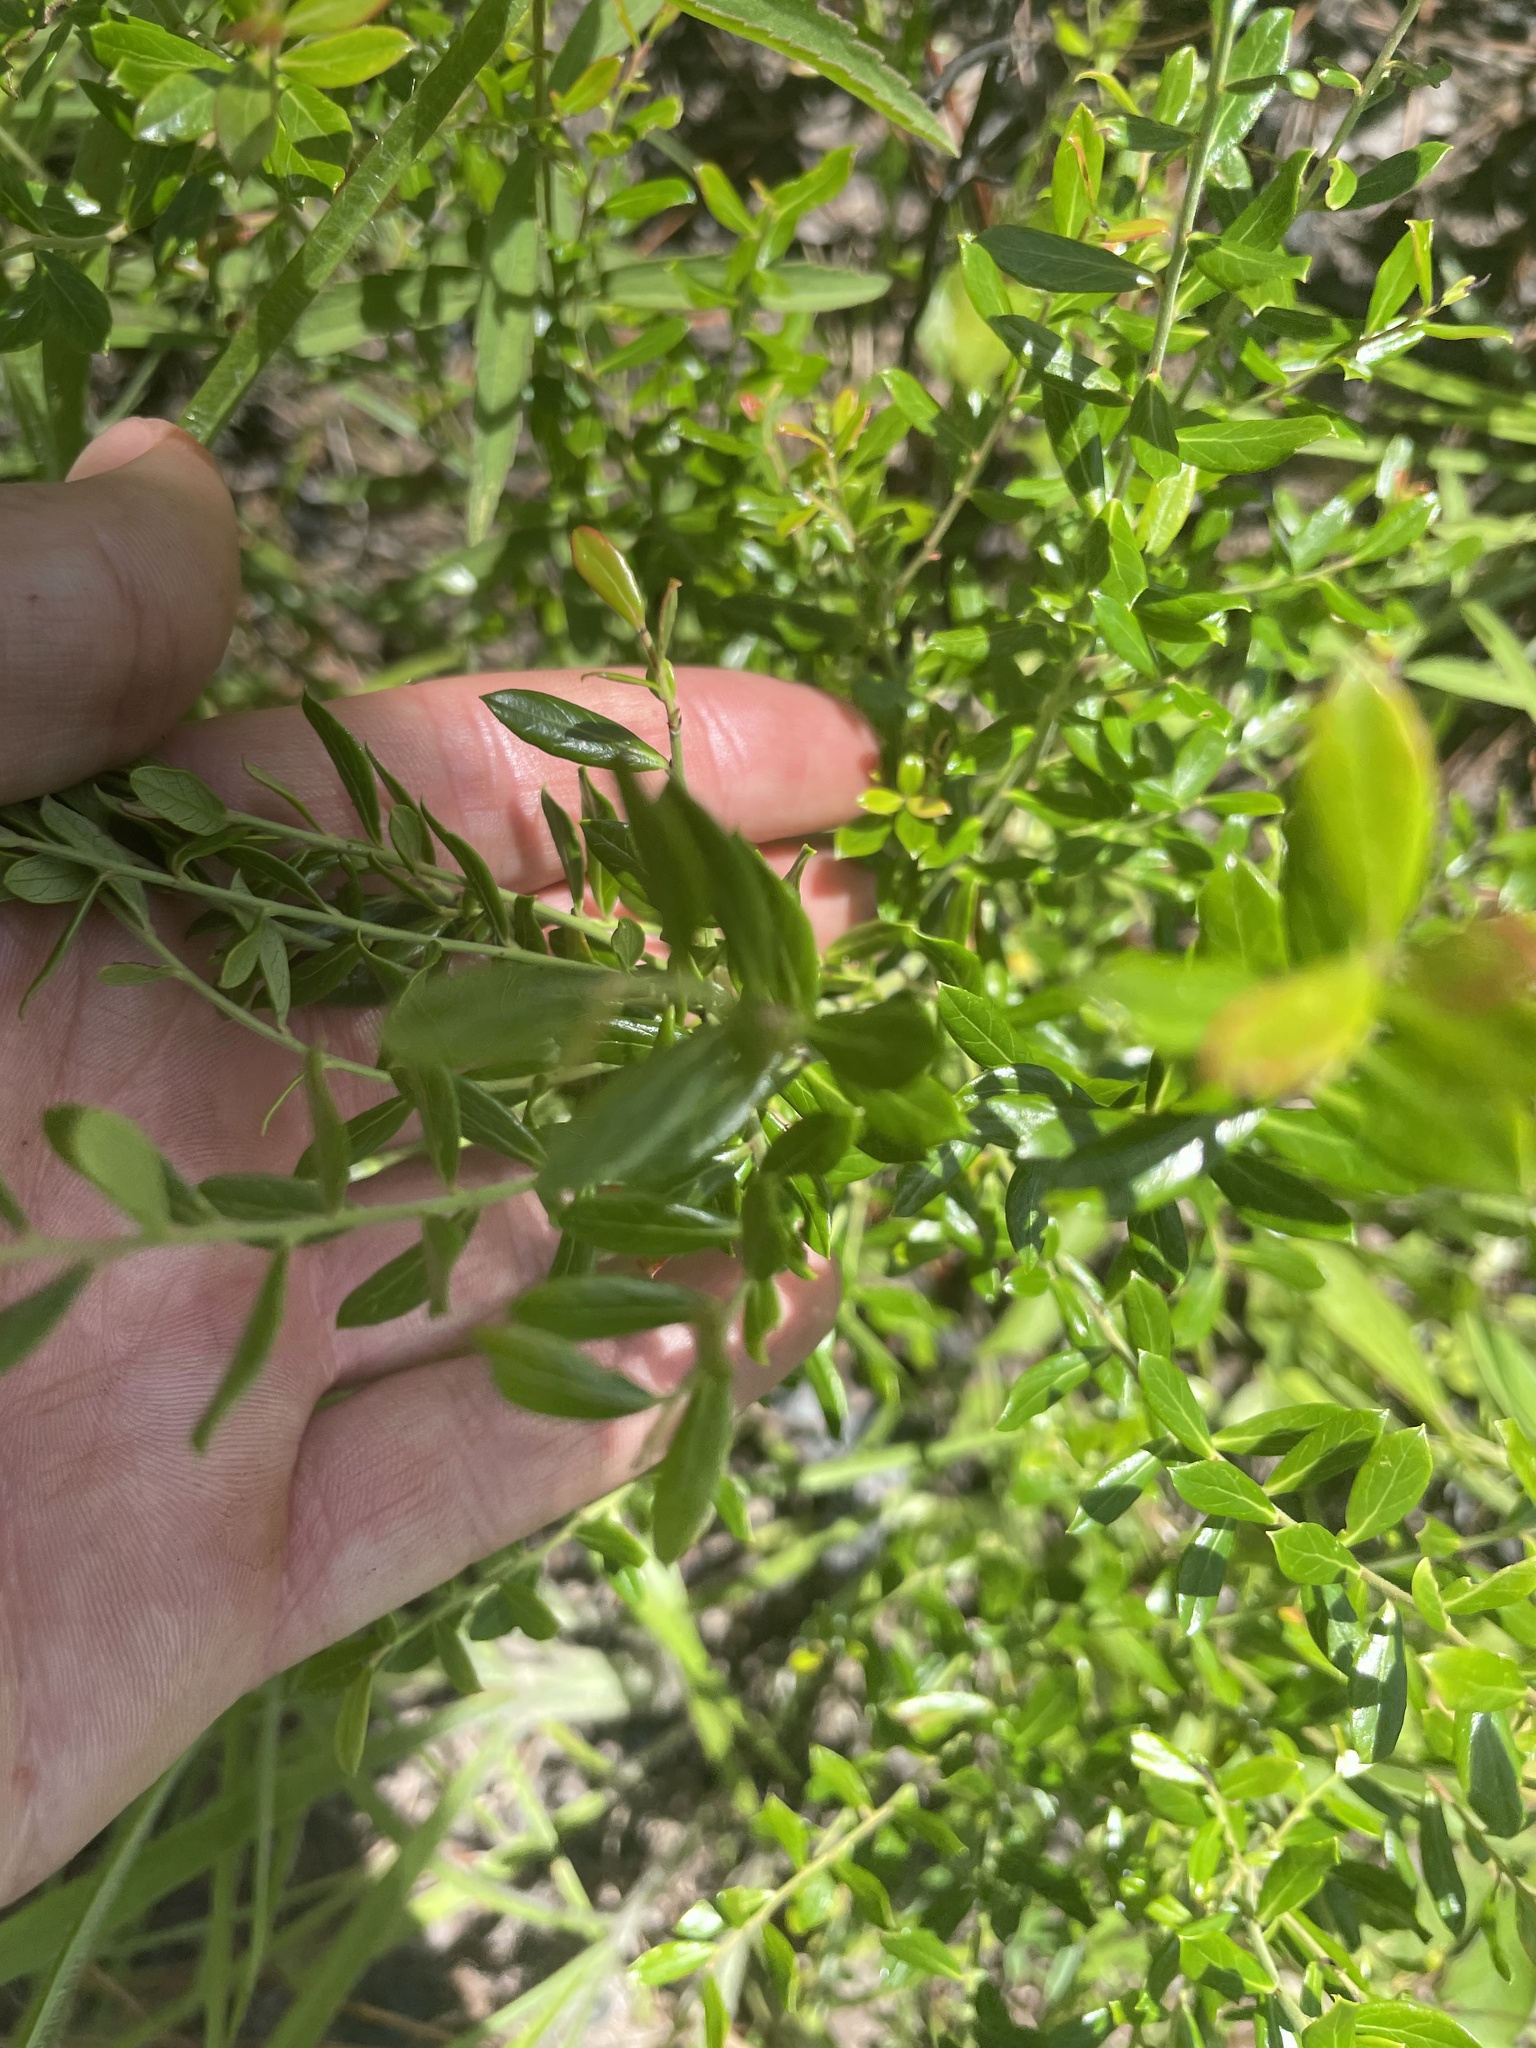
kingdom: Plantae
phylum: Tracheophyta
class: Magnoliopsida
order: Ericales
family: Ericaceae
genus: Vaccinium
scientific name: Vaccinium darrowii
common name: Darrow's blueberry
